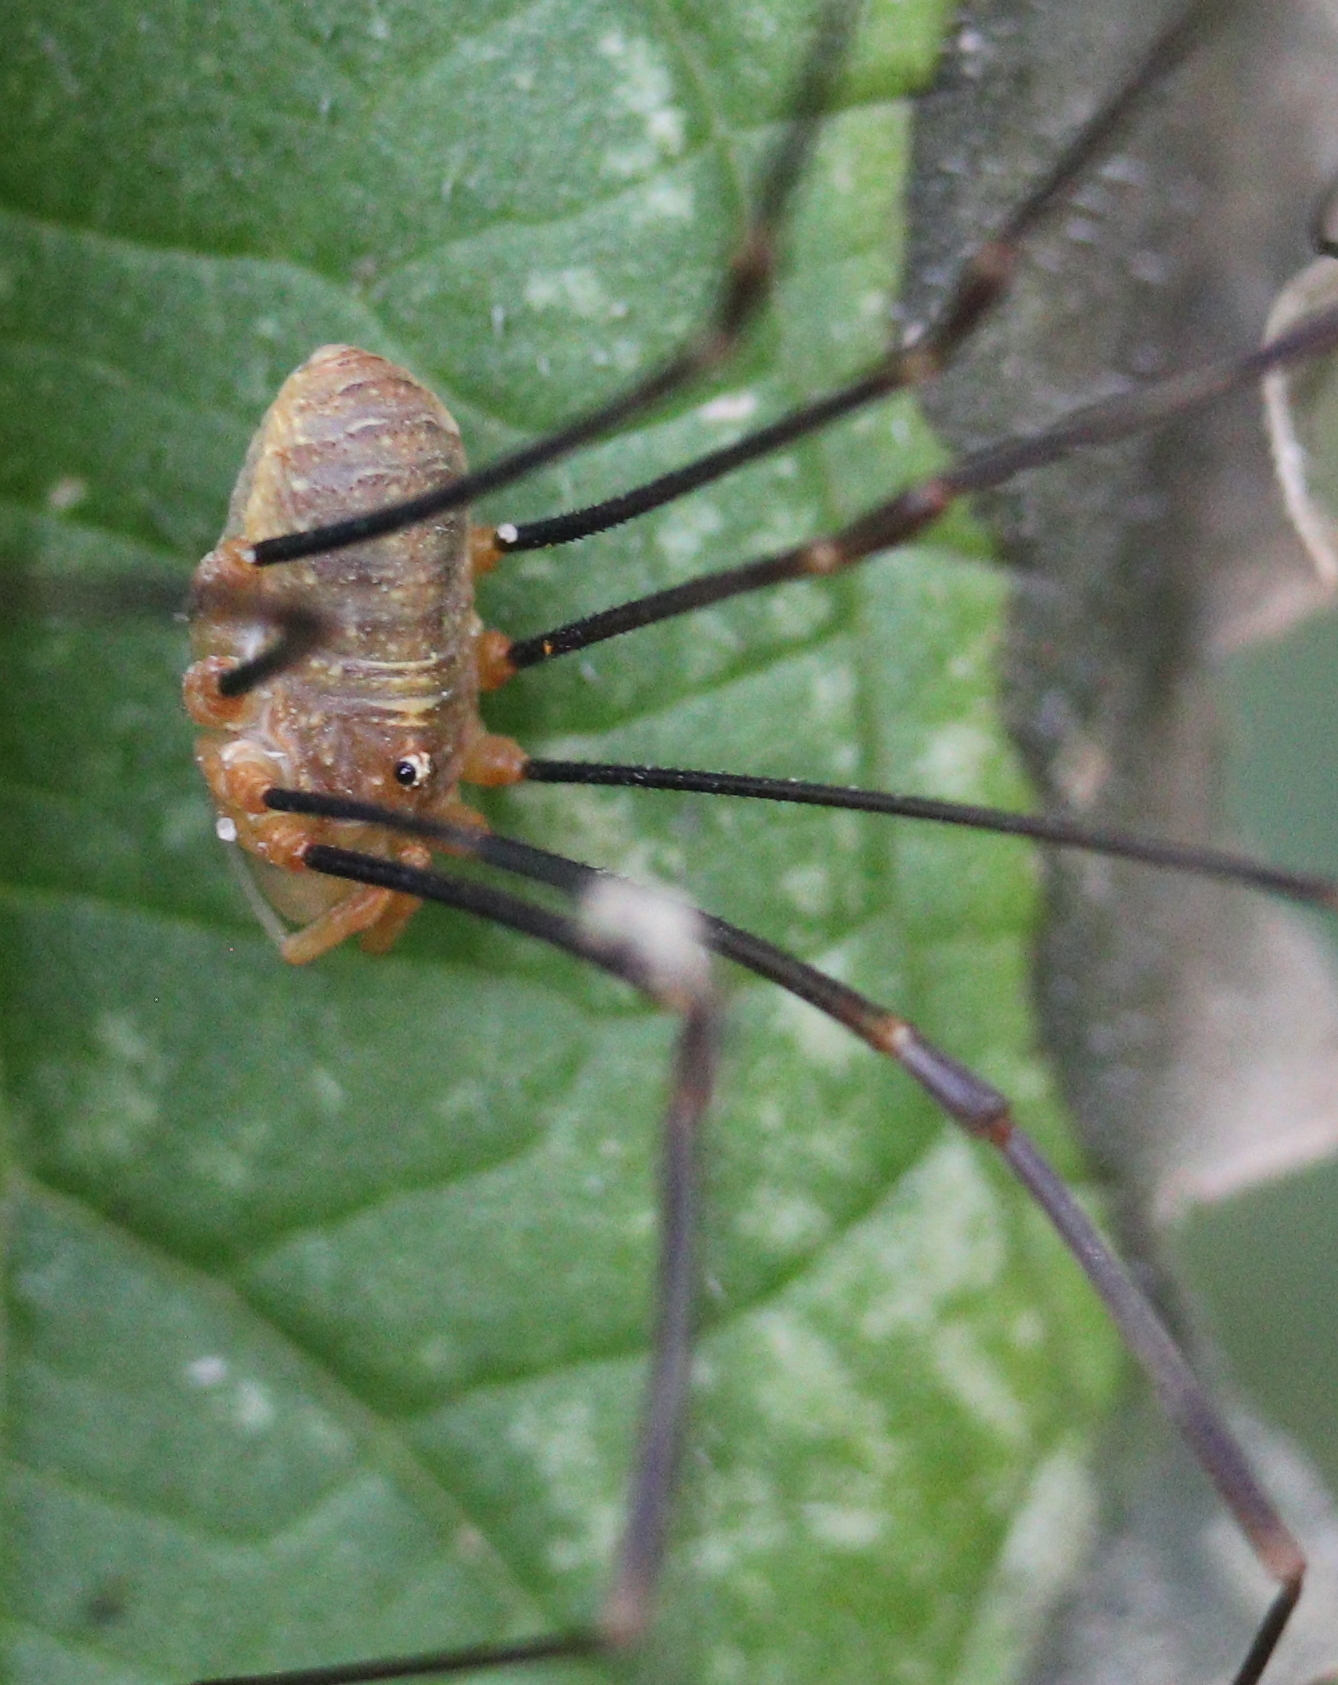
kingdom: Animalia
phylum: Arthropoda
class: Arachnida
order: Opiliones
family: Phalangiidae
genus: Opilio
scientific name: Opilio canestrinii
